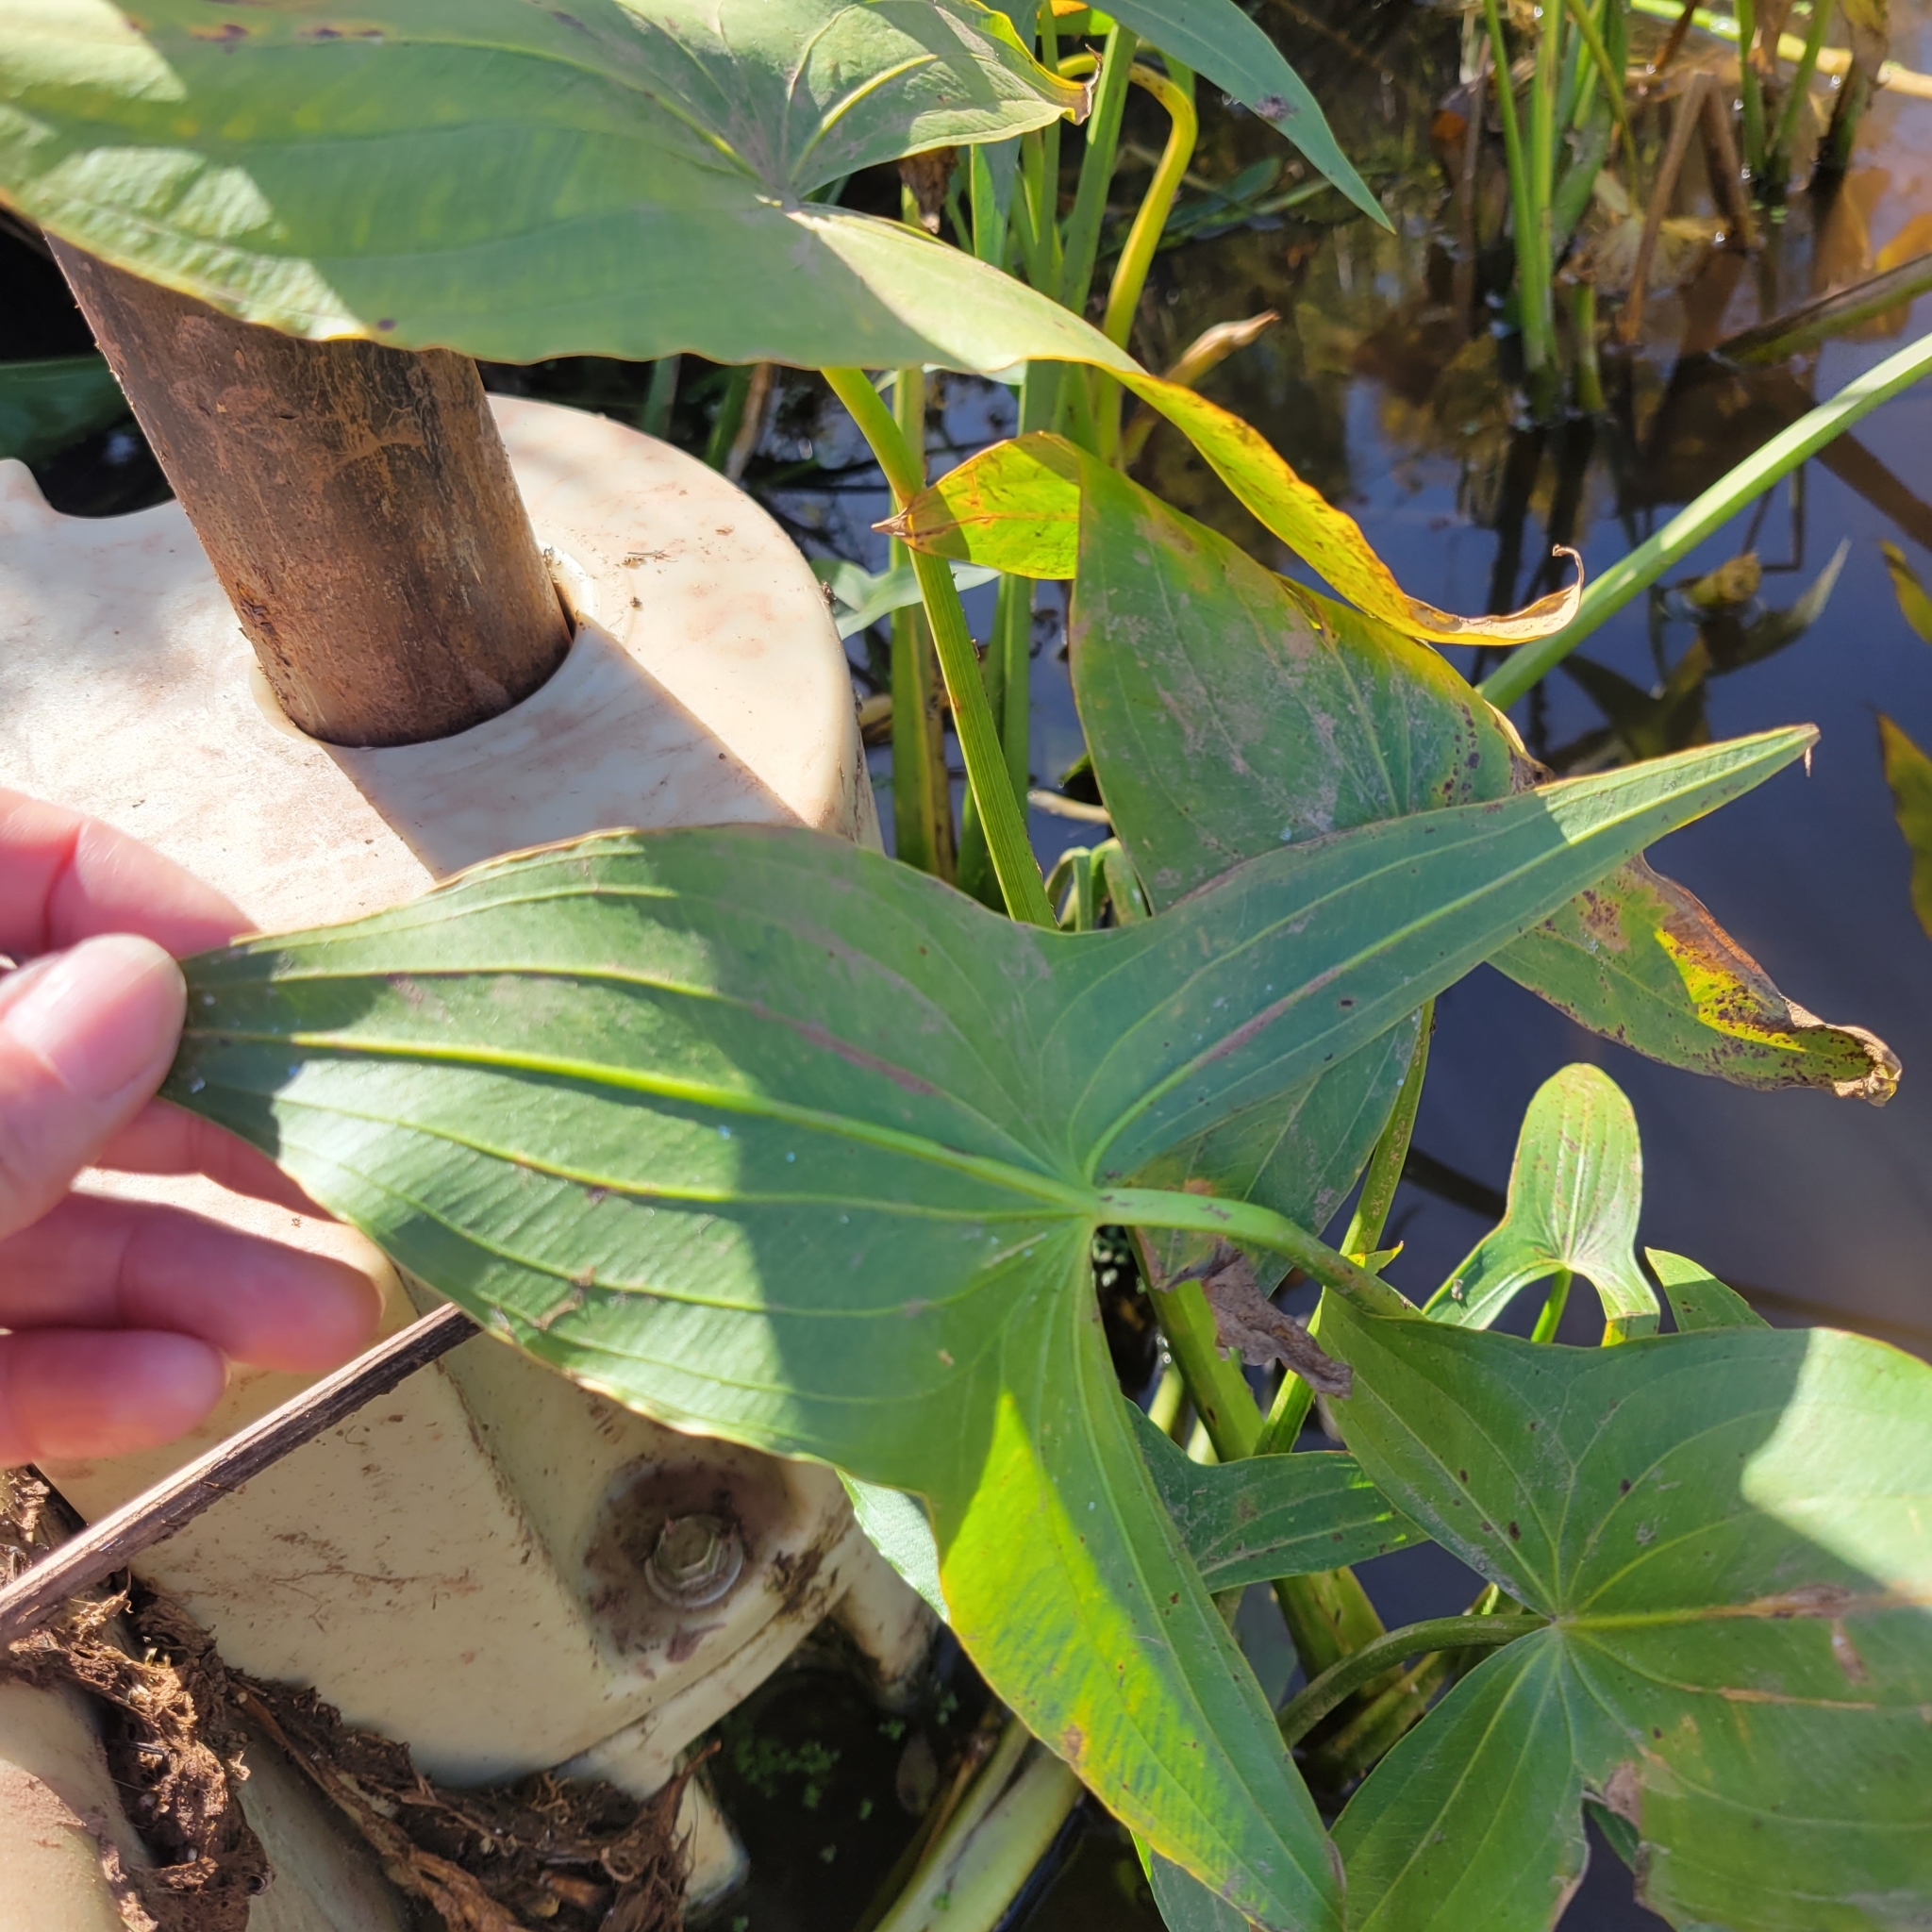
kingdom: Plantae
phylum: Tracheophyta
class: Liliopsida
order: Alismatales
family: Alismataceae
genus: Sagittaria
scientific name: Sagittaria latifolia
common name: Duck-potato
